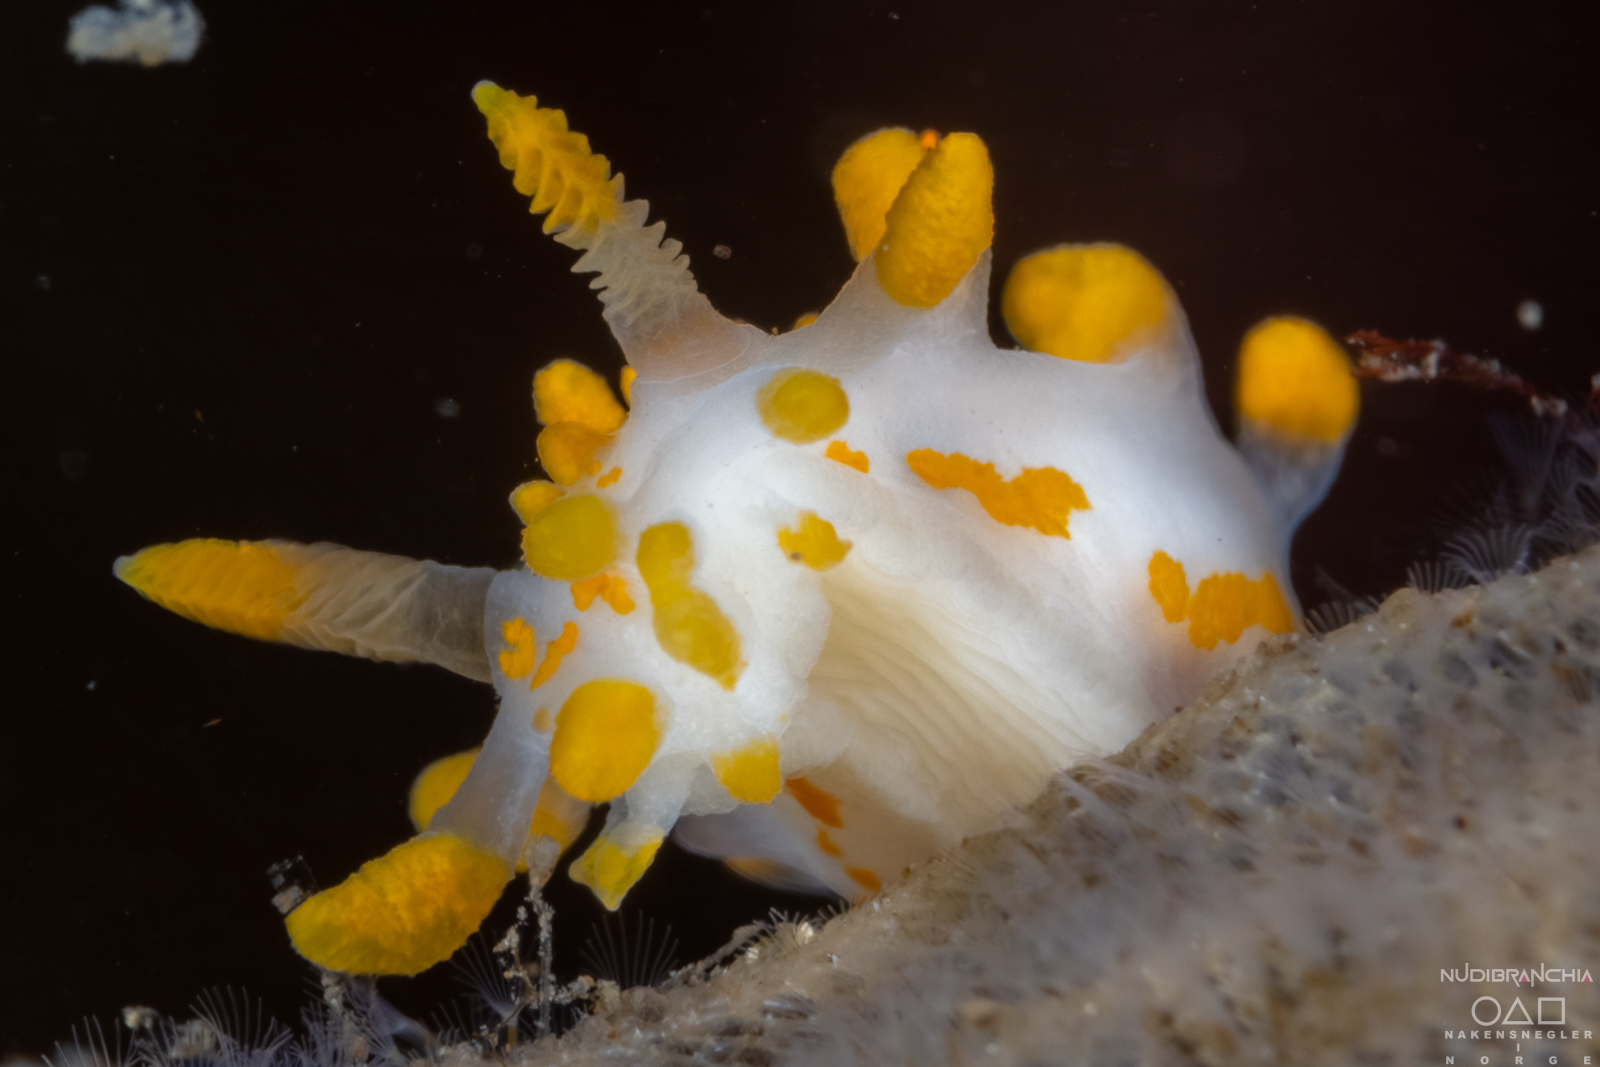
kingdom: Animalia
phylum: Mollusca
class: Gastropoda
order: Nudibranchia
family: Polyceridae
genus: Limacia
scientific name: Limacia clavigera
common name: Orange-clubbed sea slug
